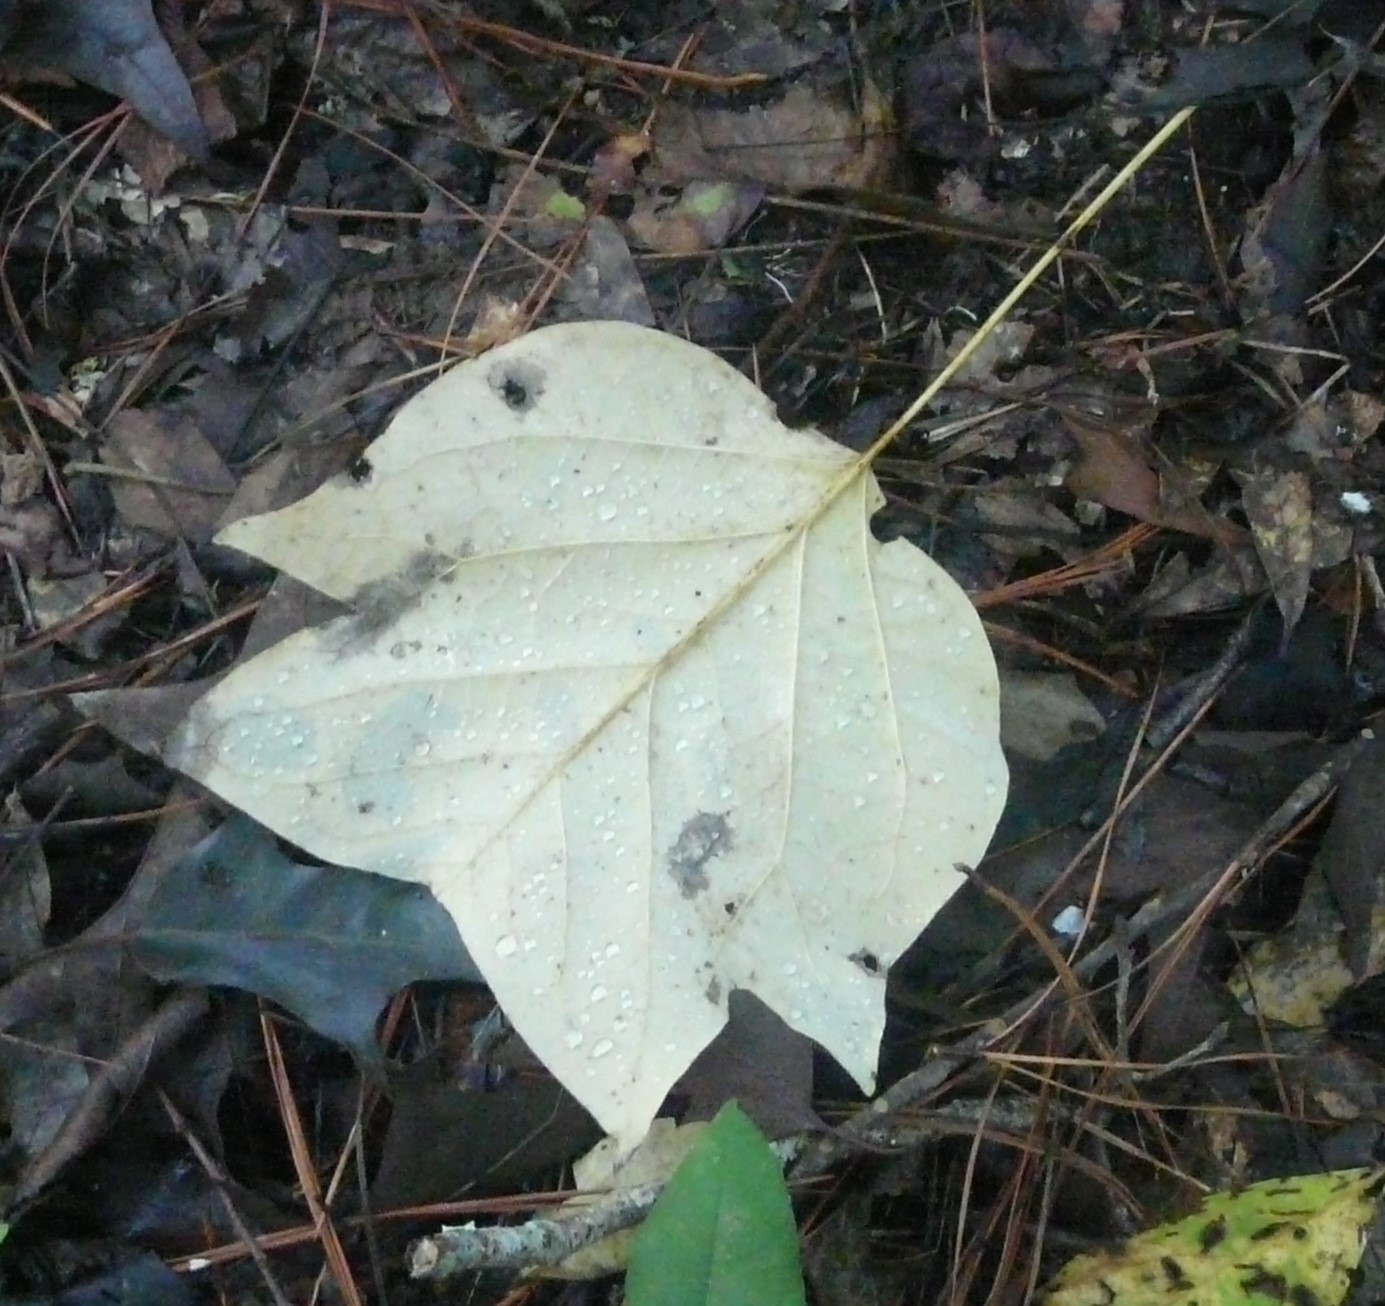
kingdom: Plantae
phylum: Tracheophyta
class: Magnoliopsida
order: Magnoliales
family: Magnoliaceae
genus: Liriodendron
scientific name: Liriodendron tulipifera
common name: Tulip tree
